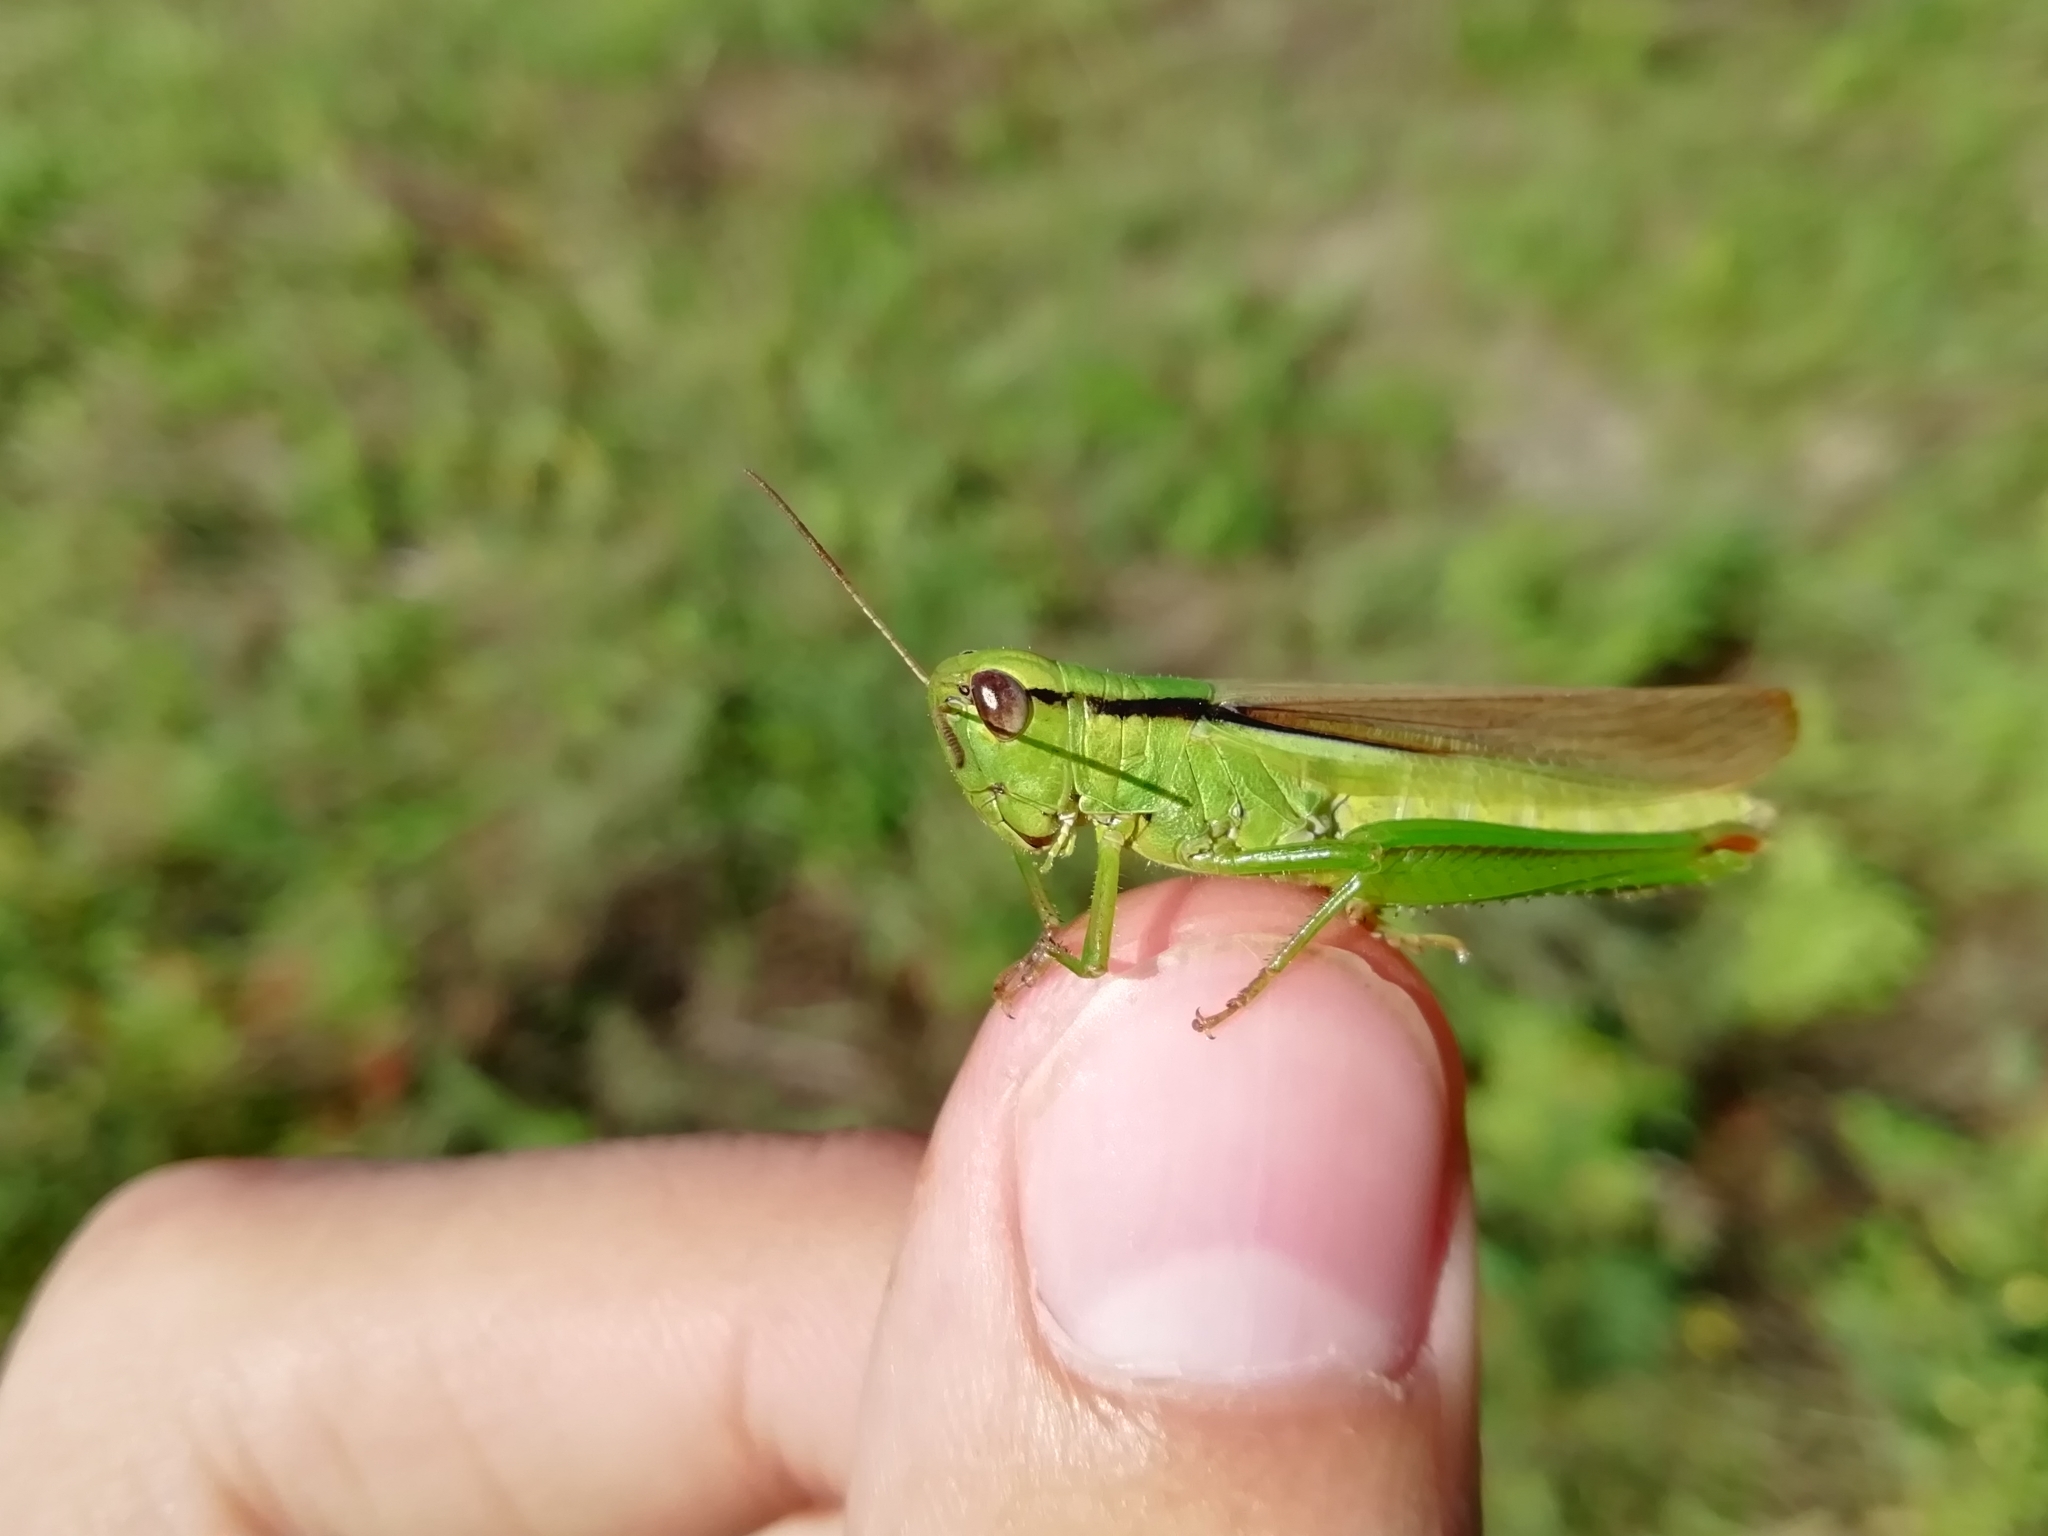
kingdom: Animalia
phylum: Arthropoda
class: Insecta
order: Orthoptera
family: Acrididae
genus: Mecostethus
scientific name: Mecostethus parapleurus
